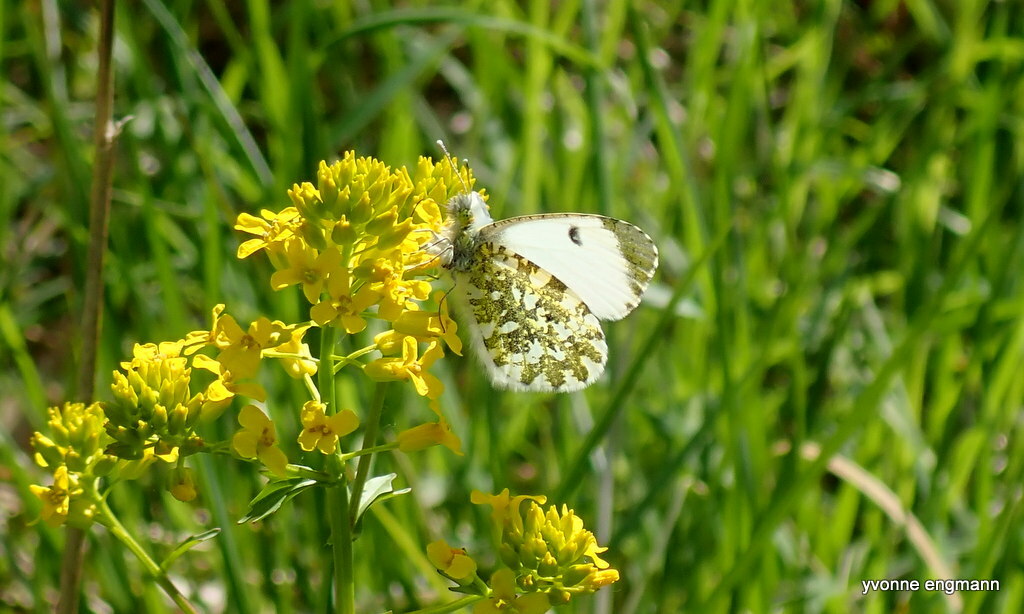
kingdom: Animalia
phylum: Arthropoda
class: Insecta
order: Lepidoptera
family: Pieridae
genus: Anthocharis
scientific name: Anthocharis cardamines
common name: Orange-tip
